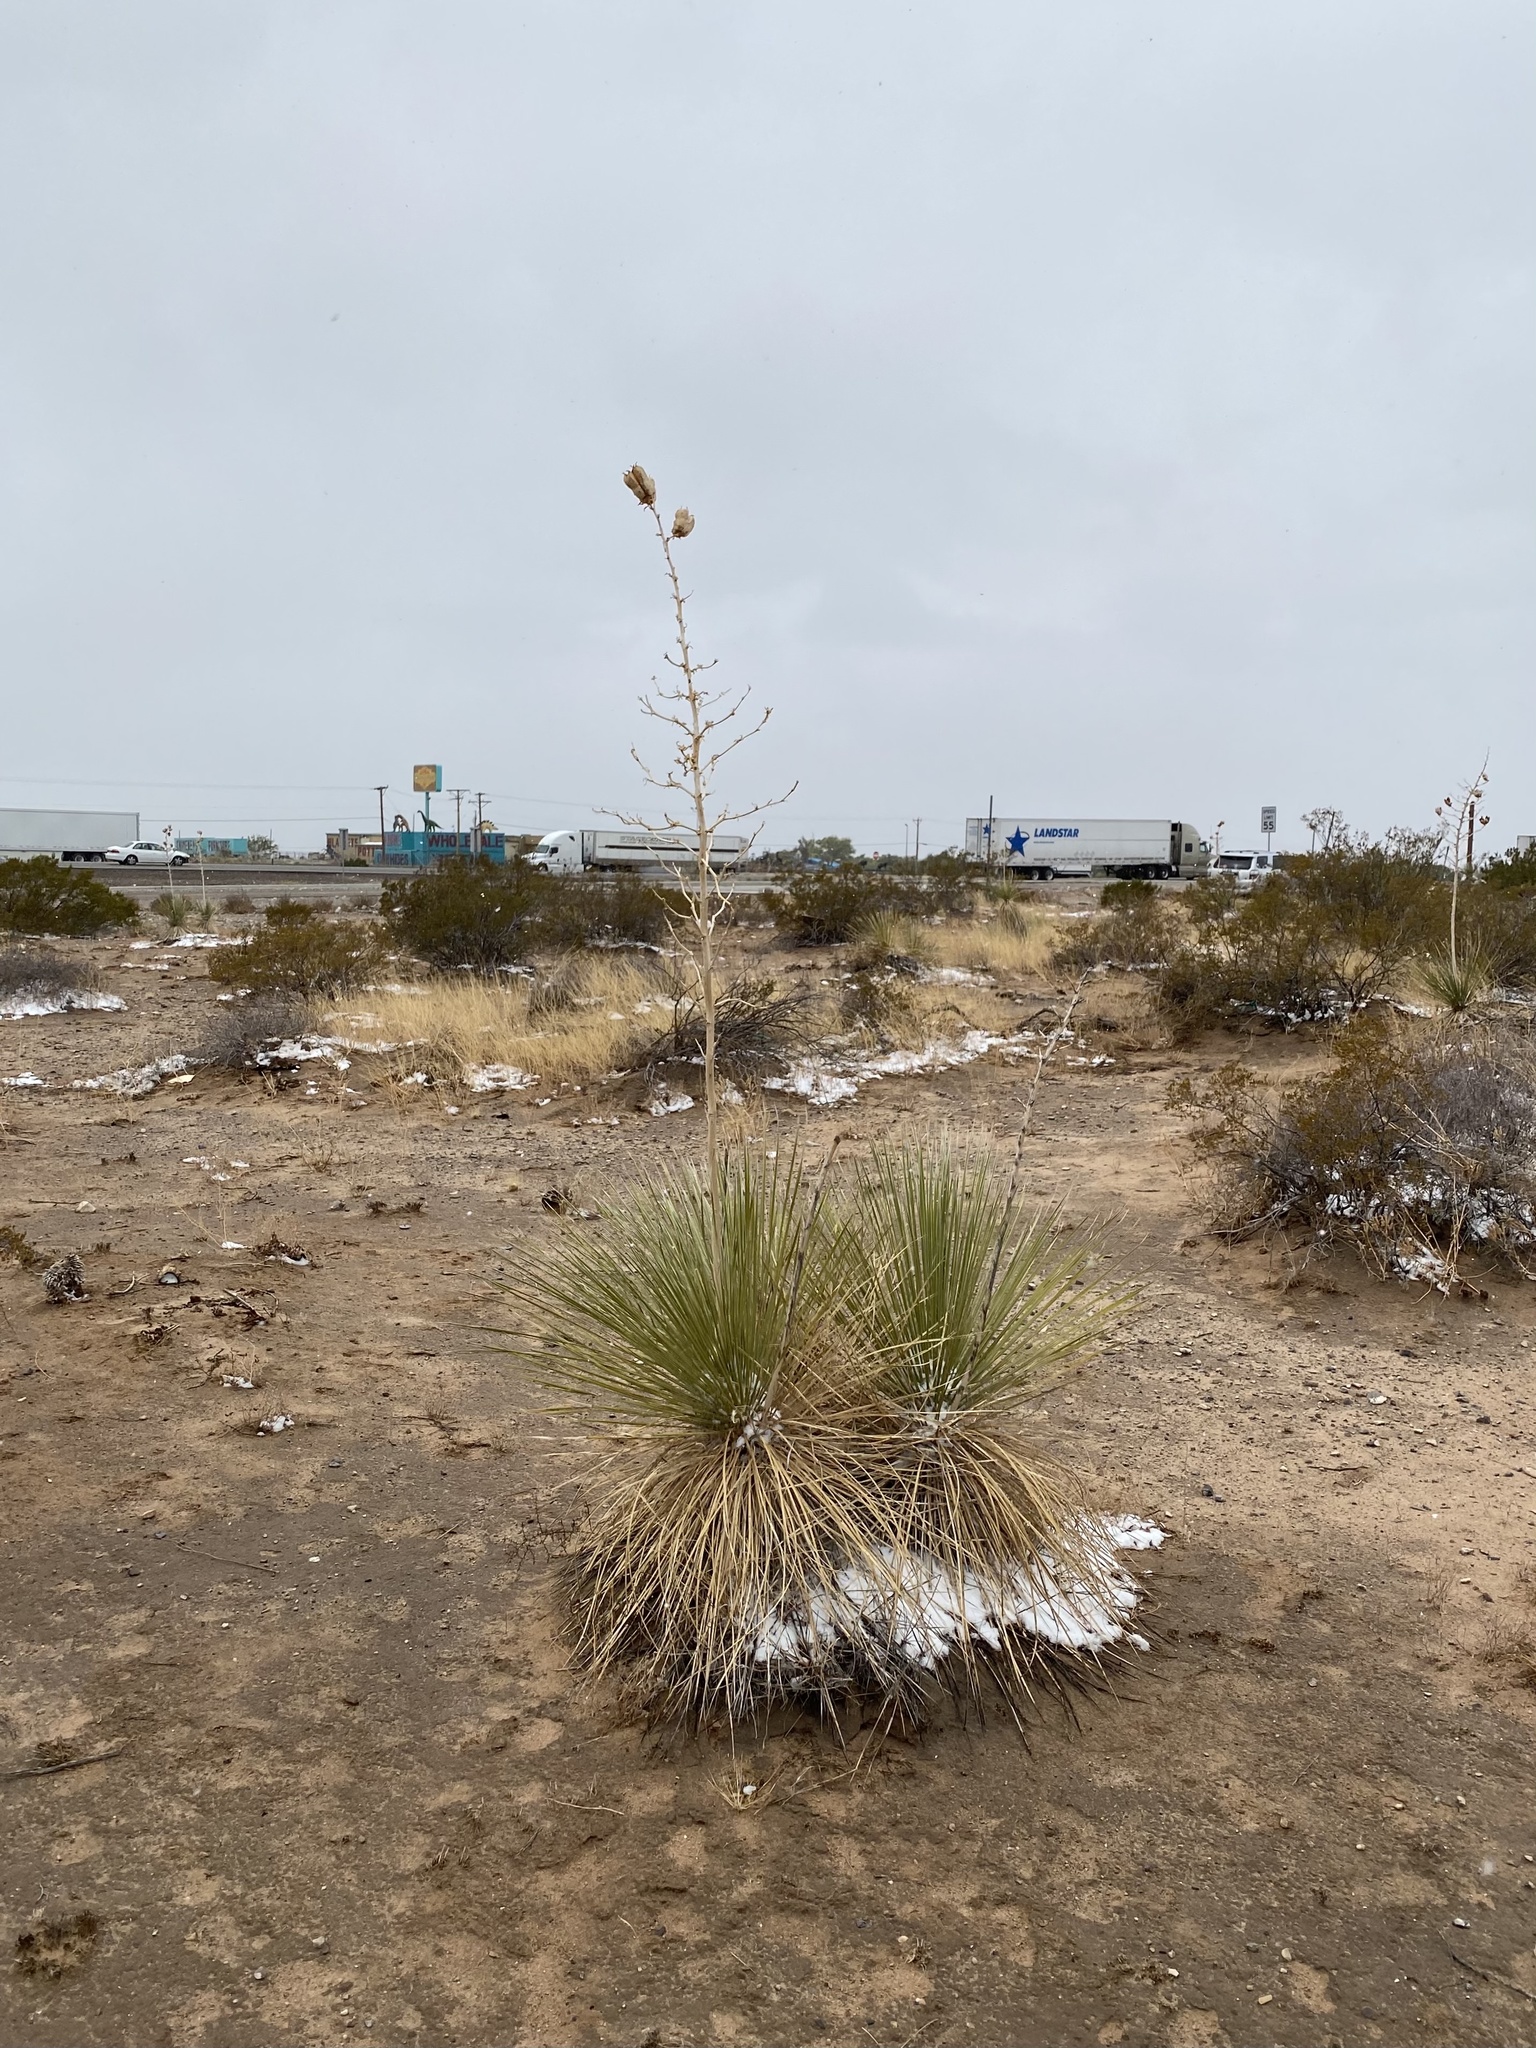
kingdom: Plantae
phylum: Tracheophyta
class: Liliopsida
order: Asparagales
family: Asparagaceae
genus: Yucca
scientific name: Yucca elata
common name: Palmella
